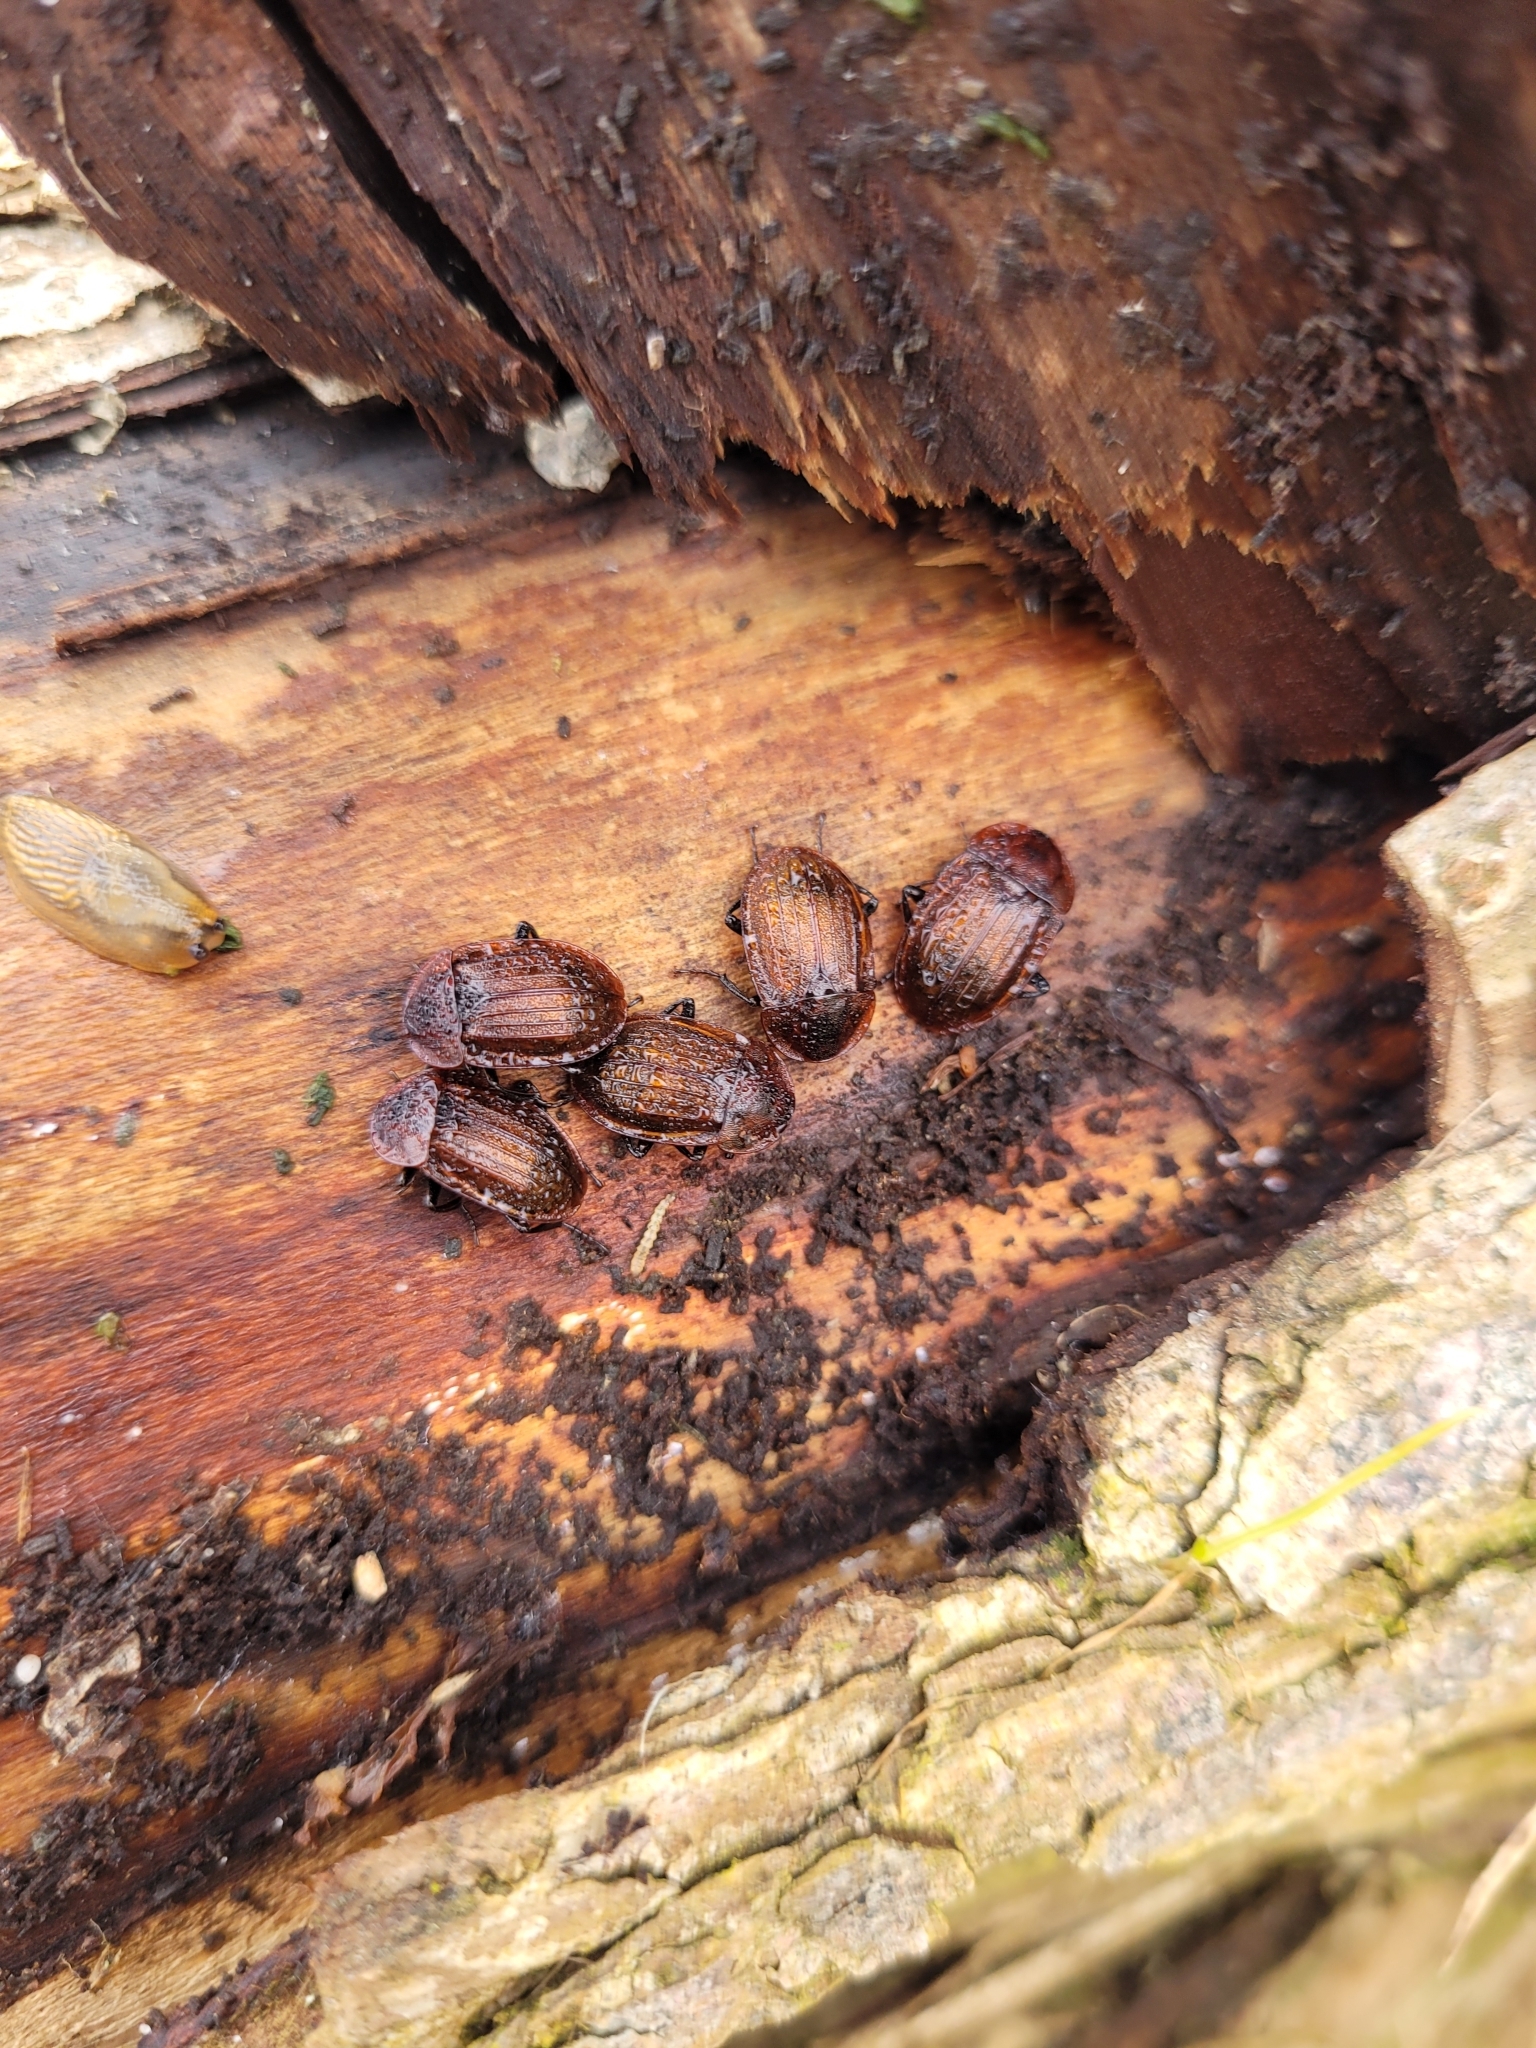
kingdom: Animalia
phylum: Arthropoda
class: Insecta
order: Coleoptera
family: Staphylinidae
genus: Silpha
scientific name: Silpha atrata
